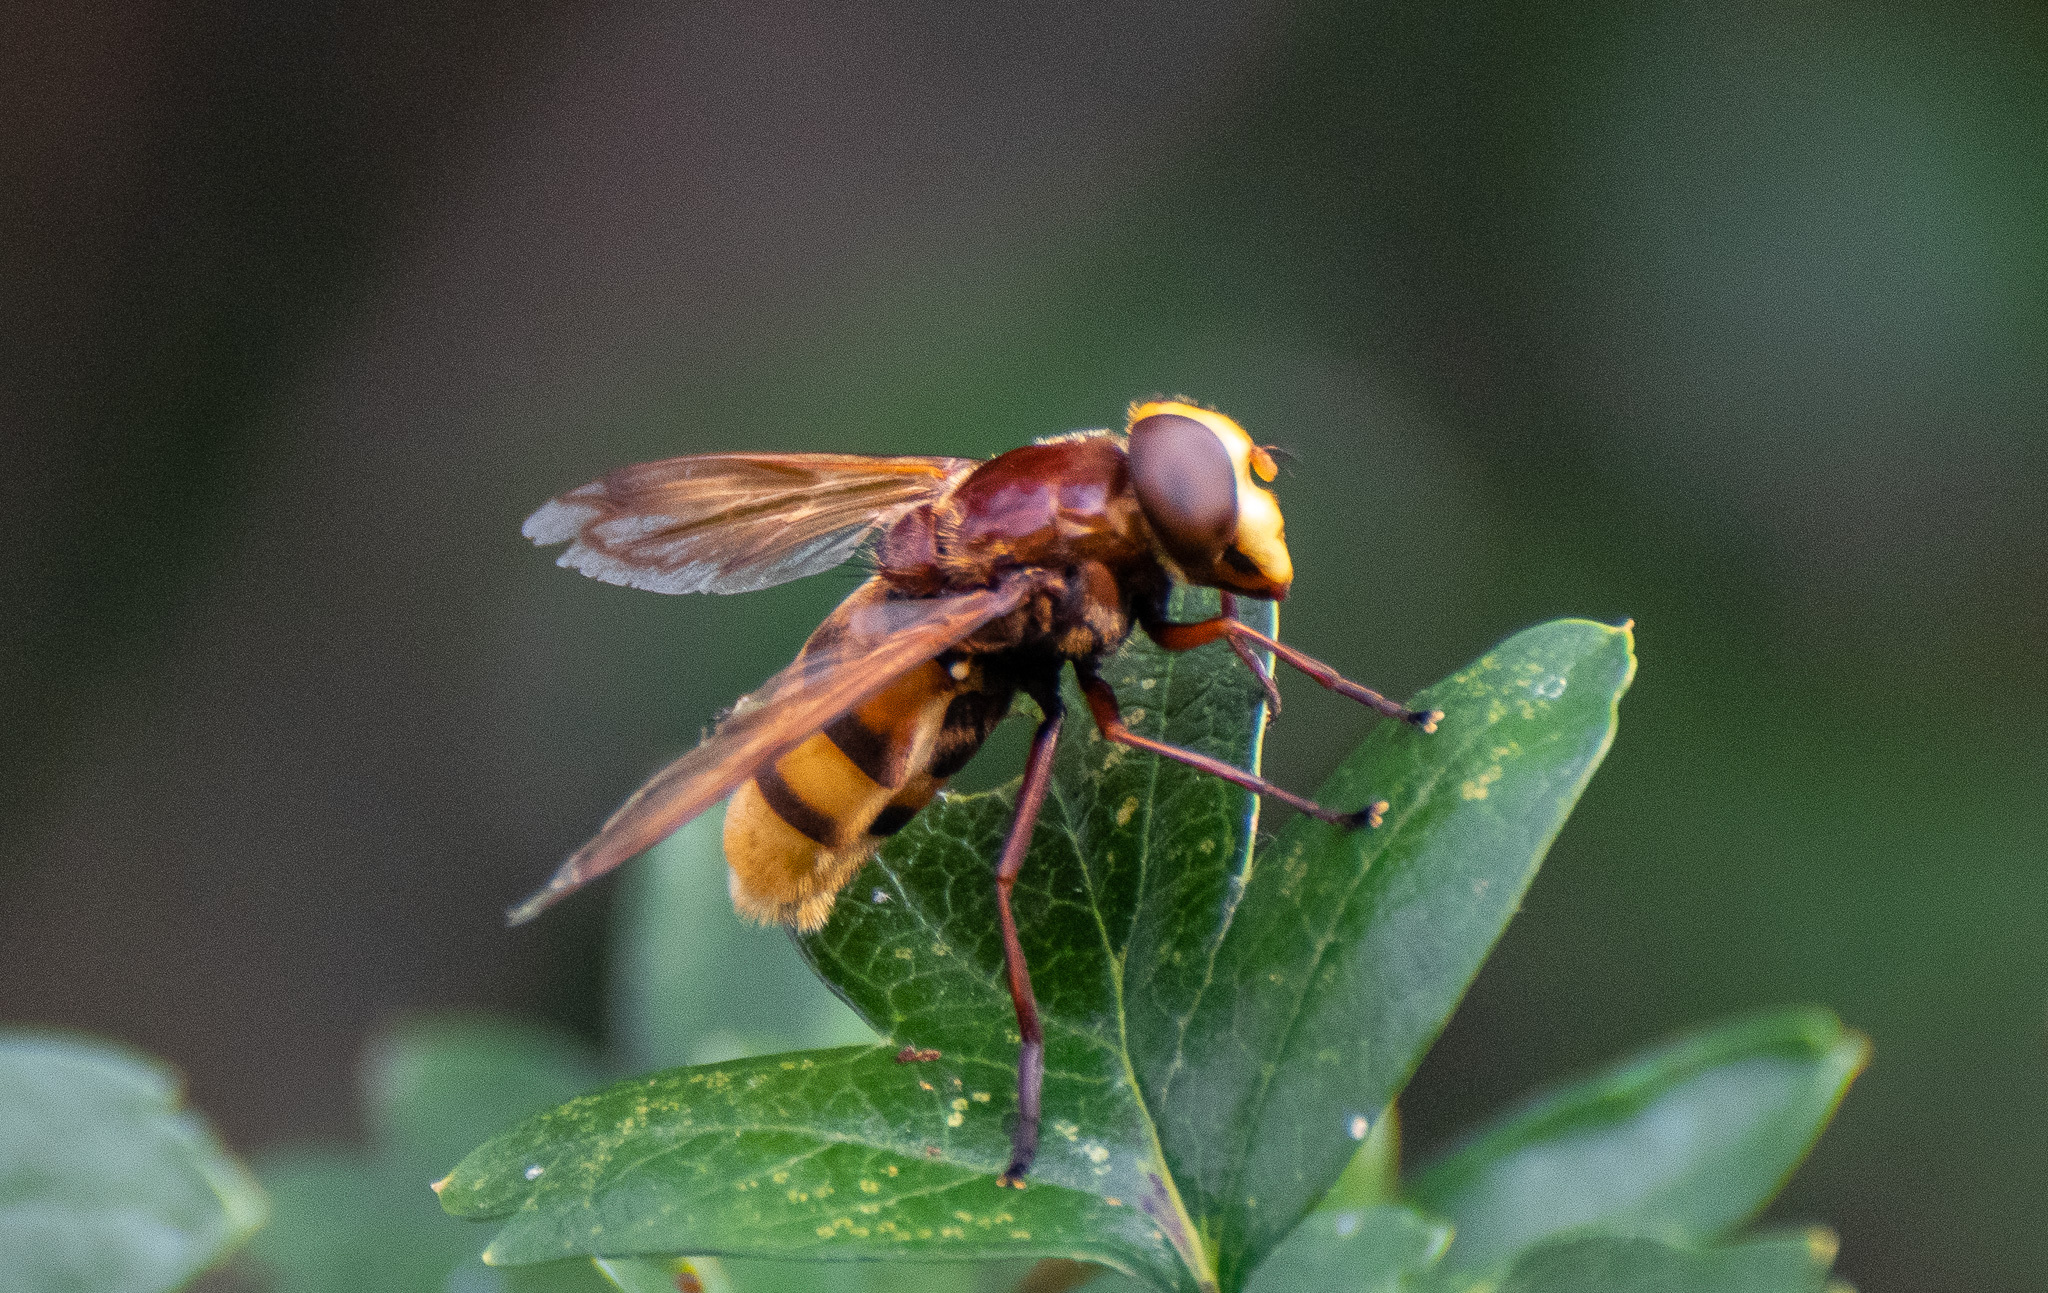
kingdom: Animalia
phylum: Arthropoda
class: Insecta
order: Diptera
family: Syrphidae
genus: Volucella
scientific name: Volucella zonaria
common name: Hornet hoverfly
